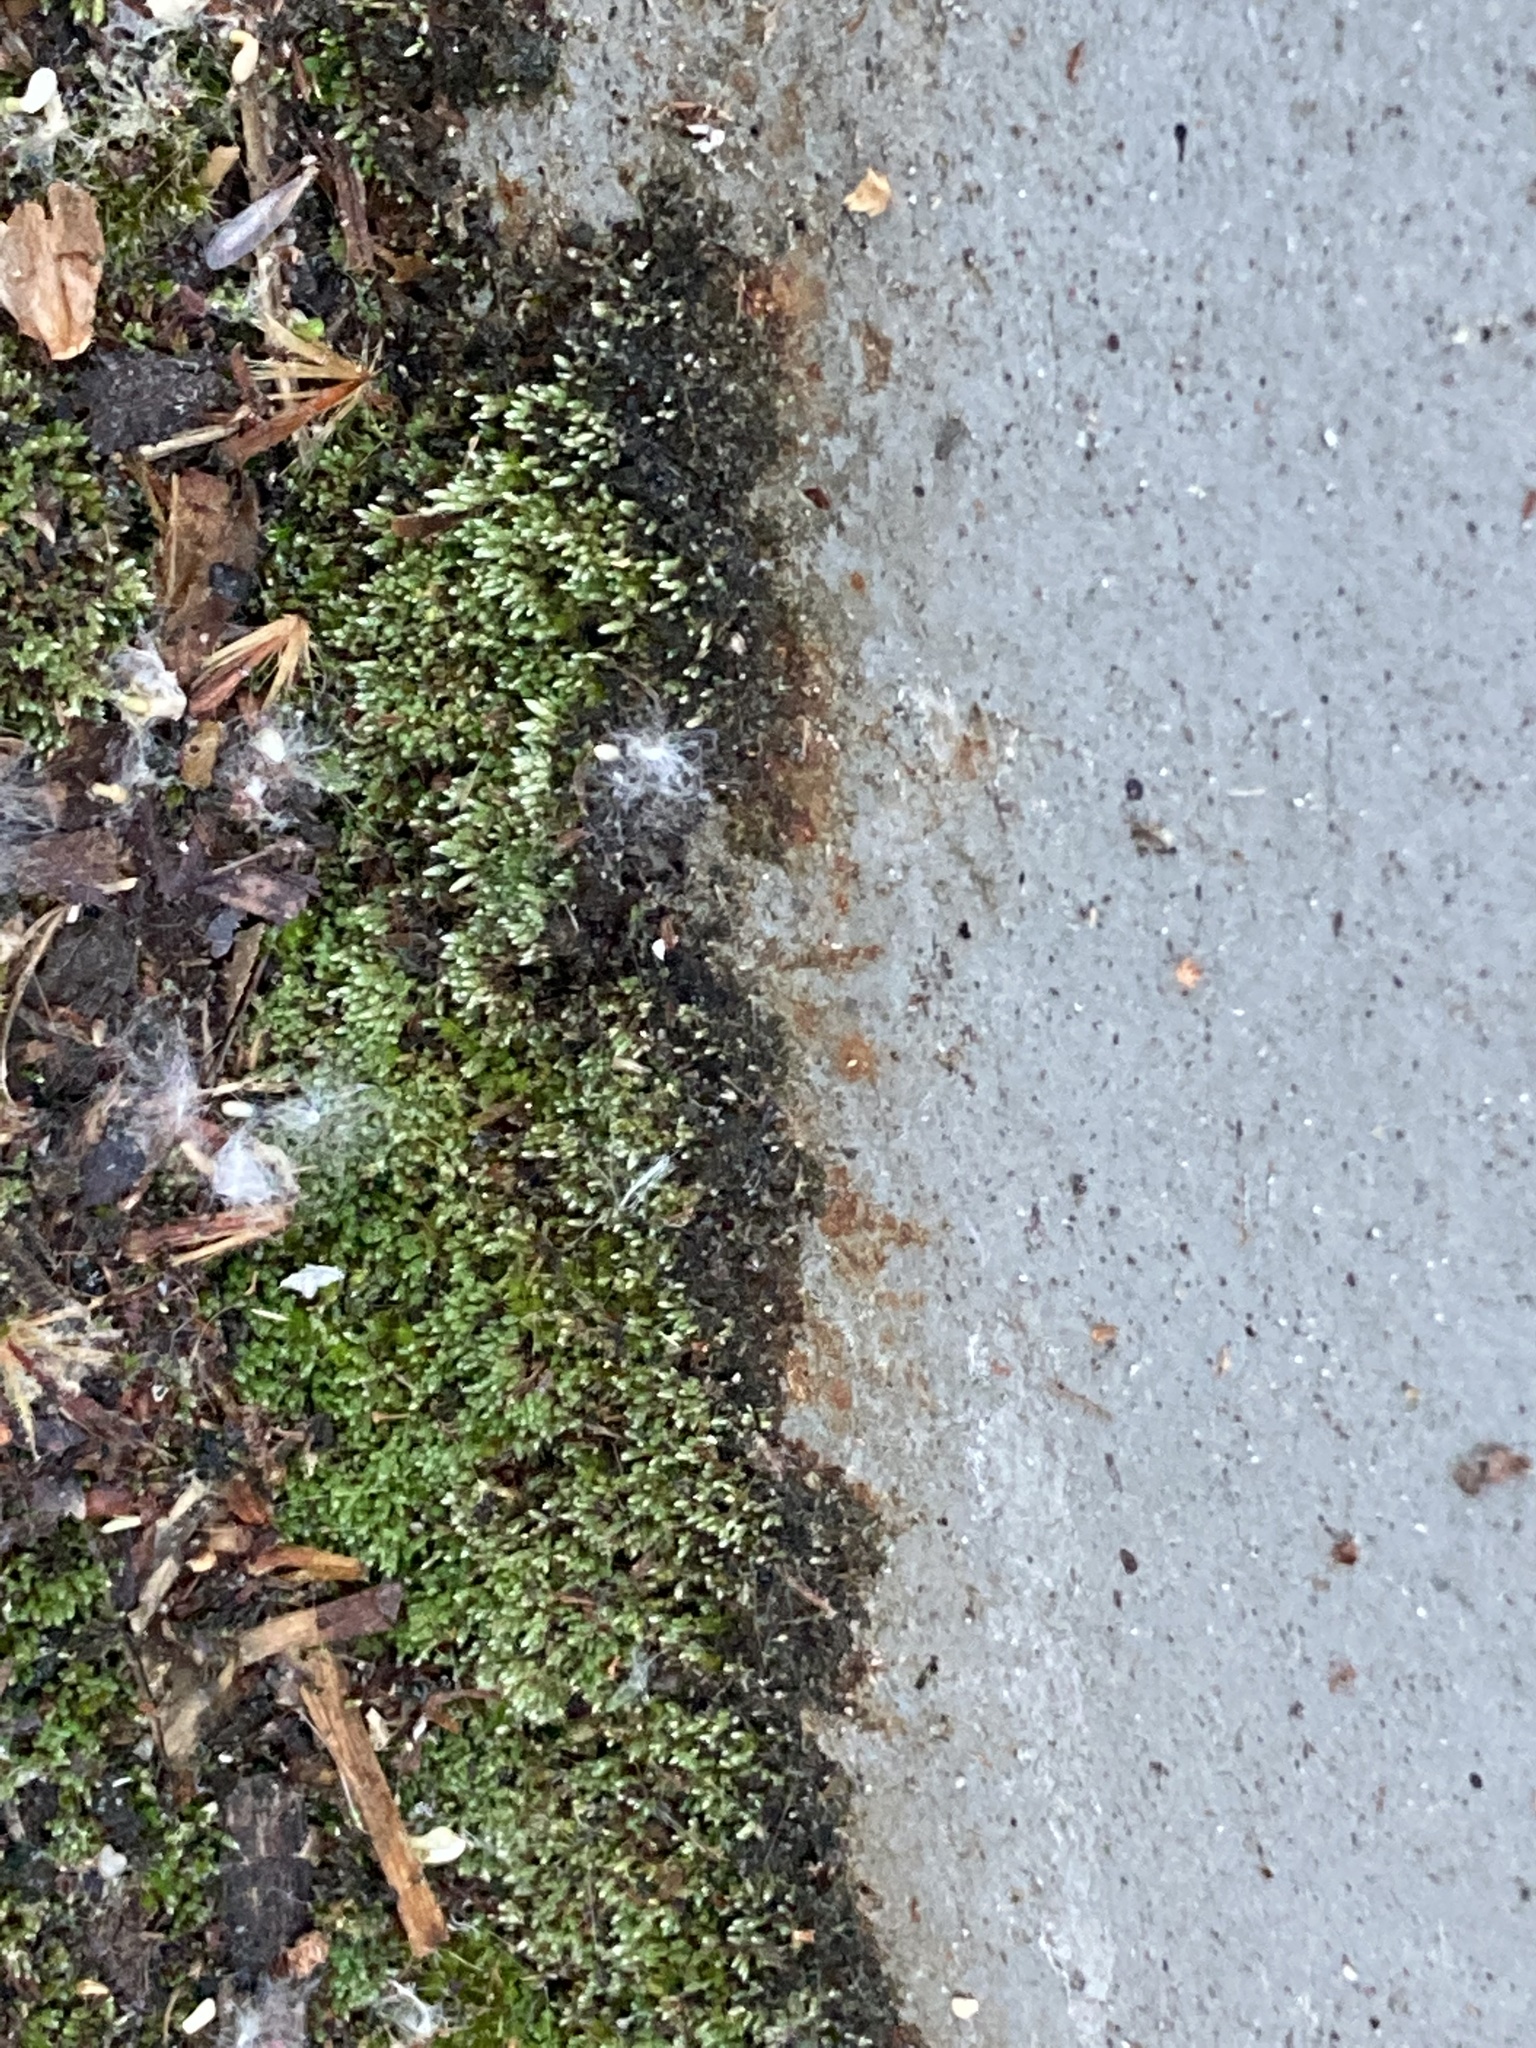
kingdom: Plantae
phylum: Bryophyta
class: Bryopsida
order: Bryales
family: Bryaceae
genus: Bryum
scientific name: Bryum argenteum
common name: Silver-moss
